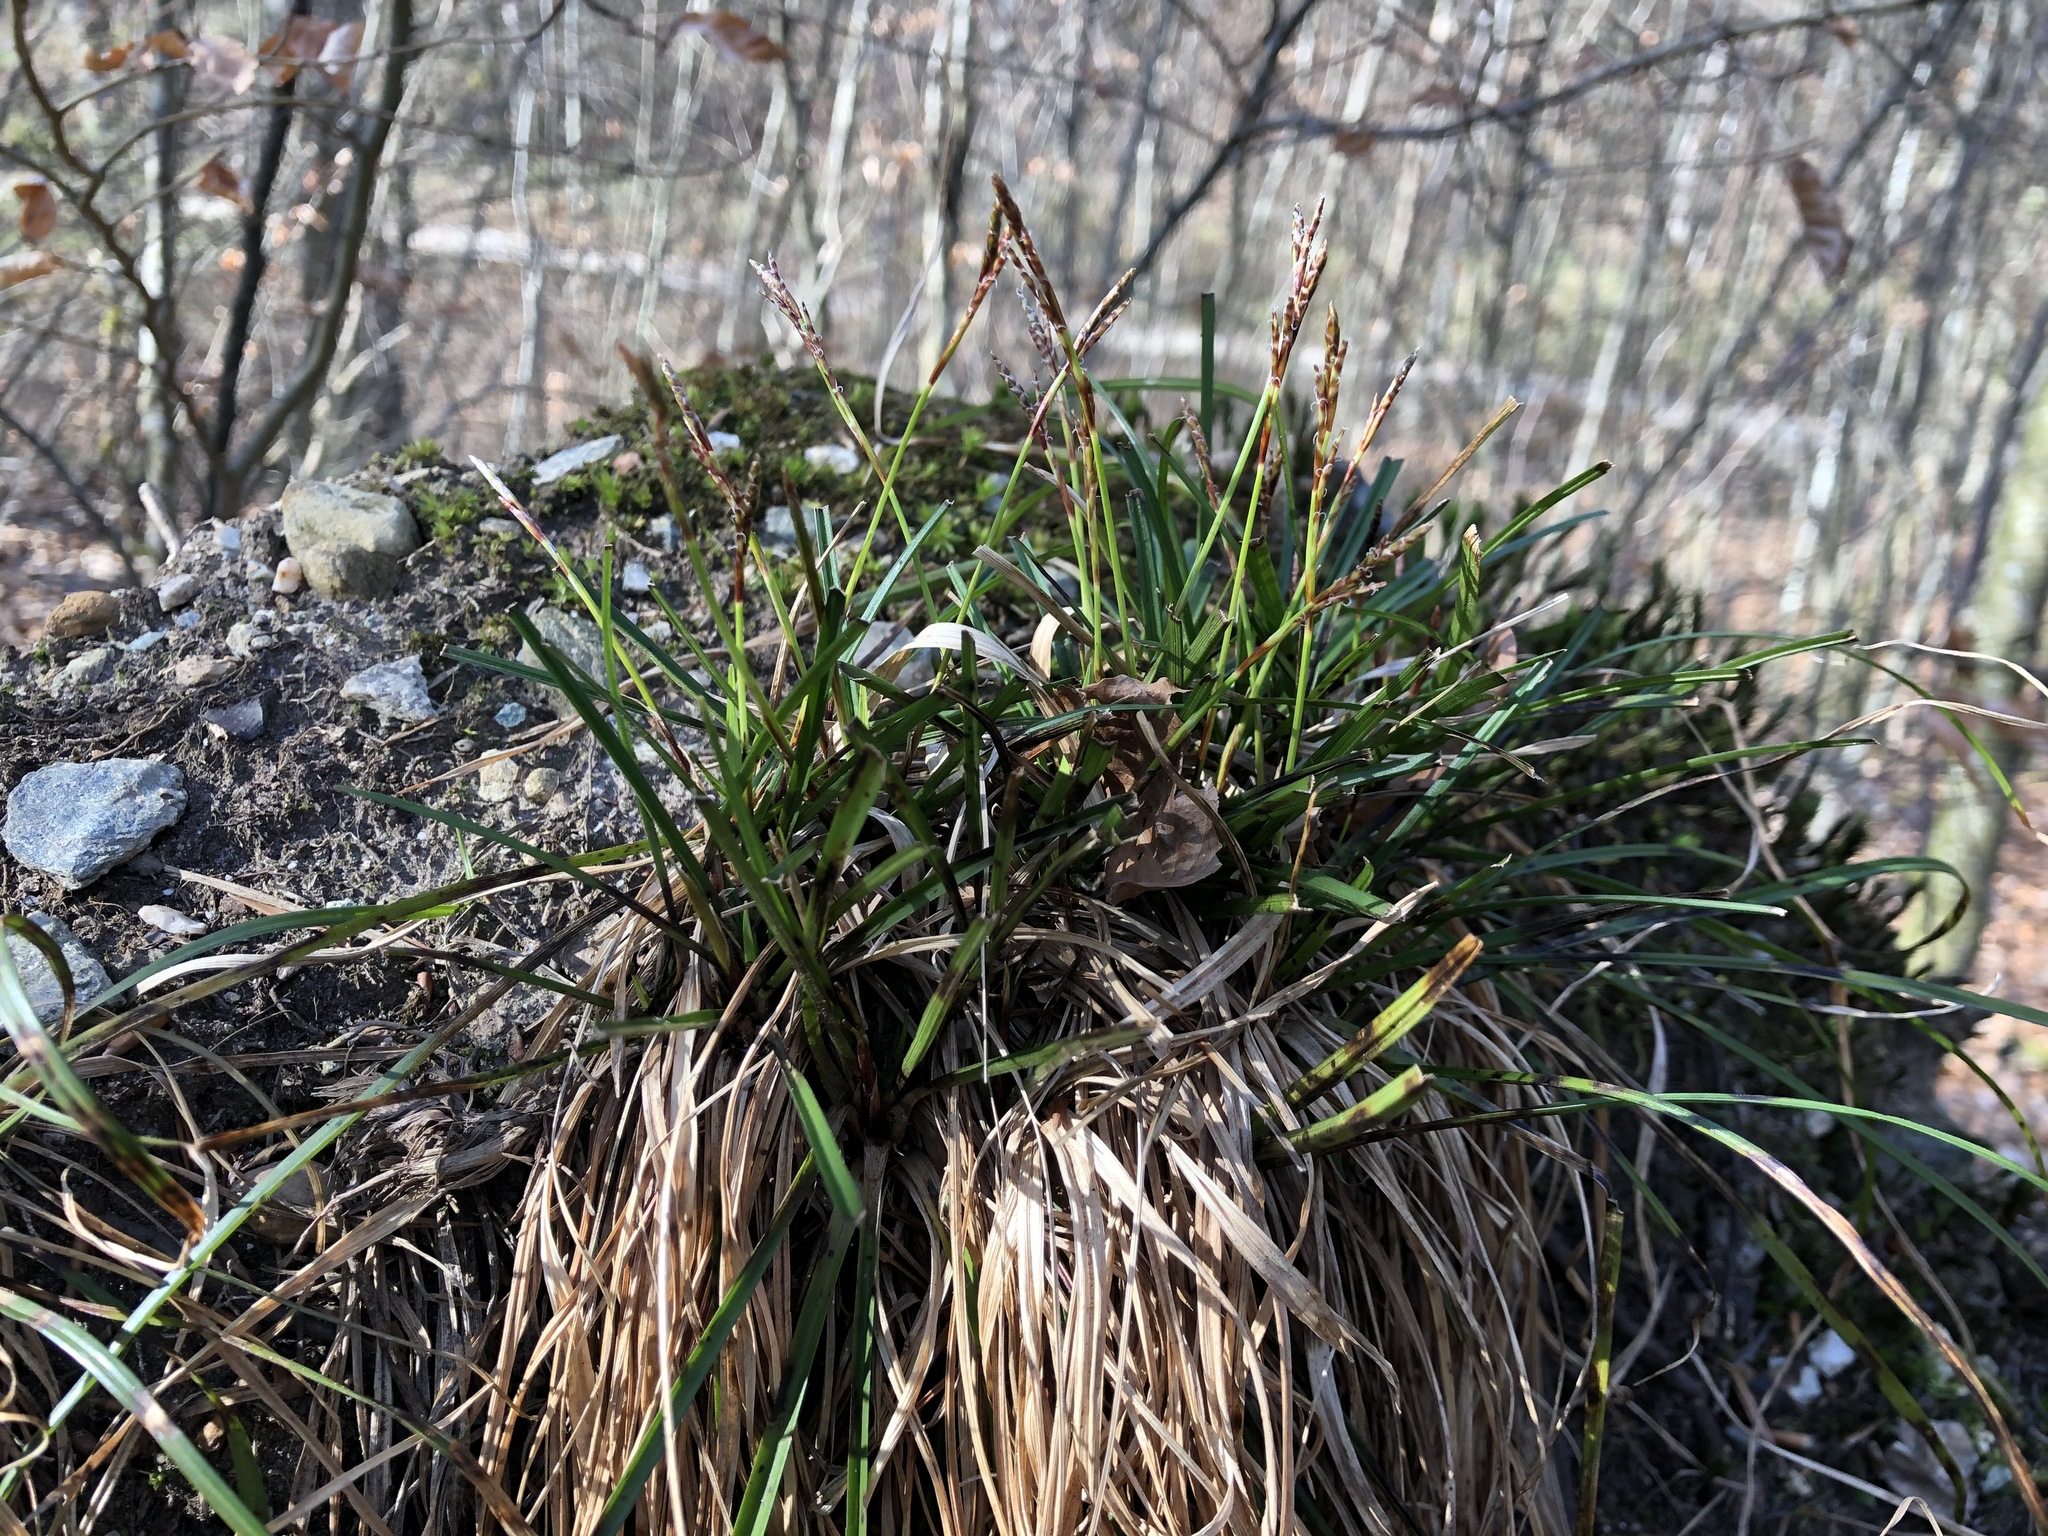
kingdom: Plantae
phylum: Tracheophyta
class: Liliopsida
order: Poales
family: Cyperaceae
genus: Carex
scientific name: Carex digitata
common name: Fingered sedge
